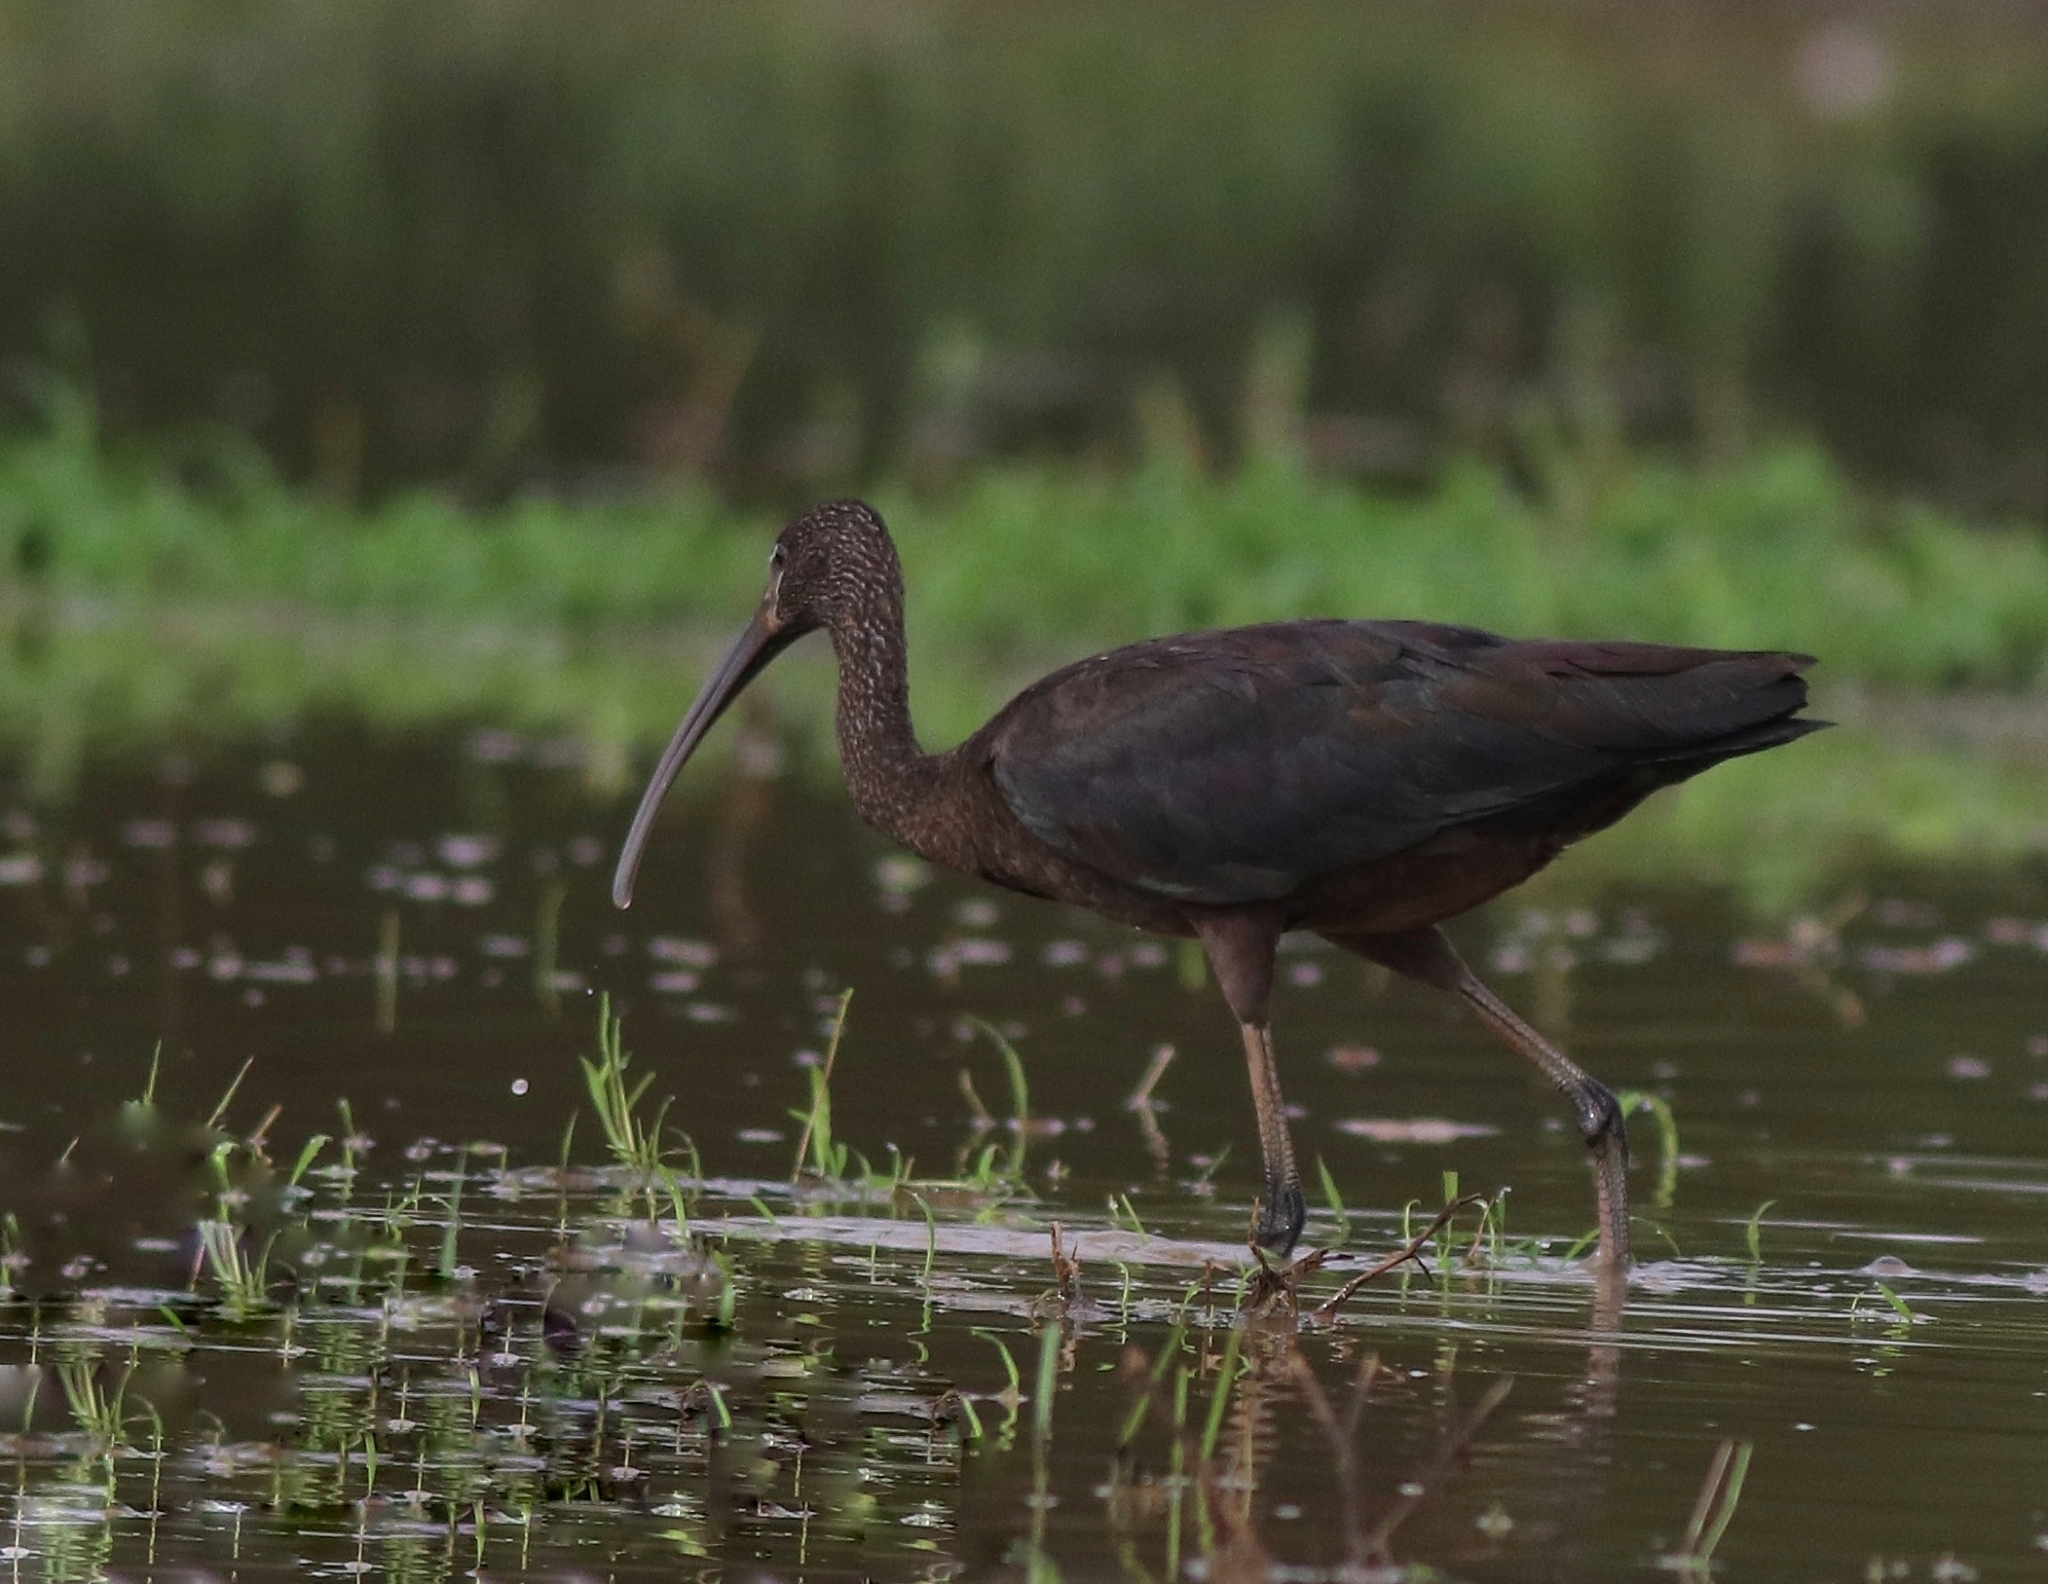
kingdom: Animalia
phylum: Chordata
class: Aves
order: Pelecaniformes
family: Threskiornithidae
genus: Plegadis
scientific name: Plegadis falcinellus
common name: Glossy ibis
